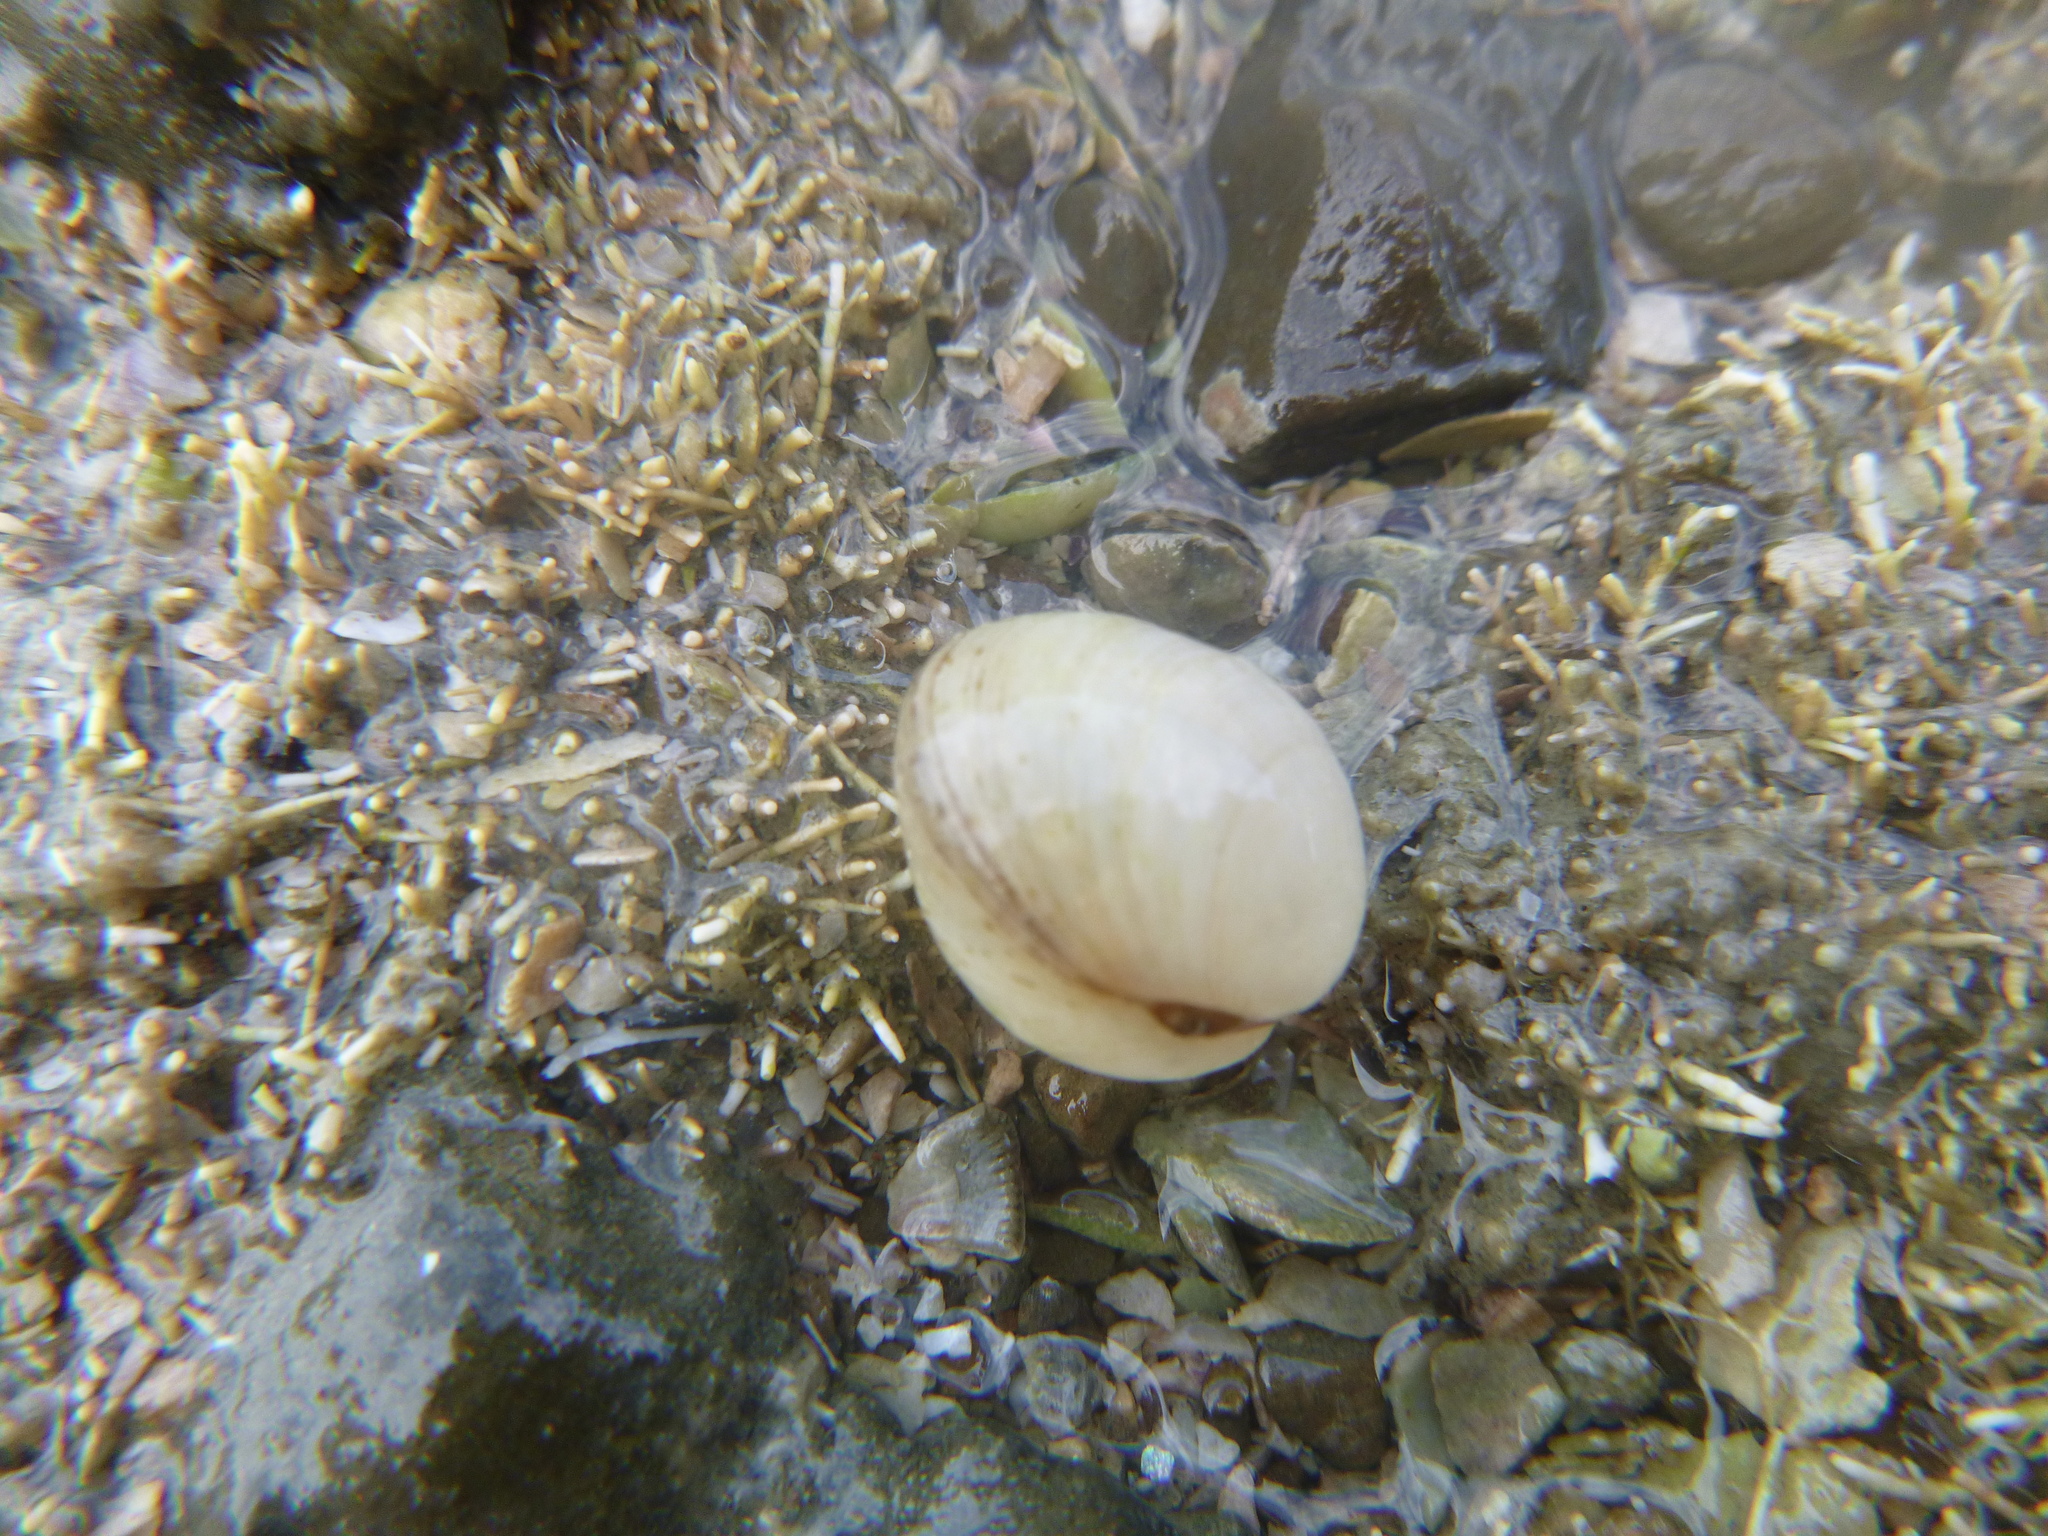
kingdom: Animalia
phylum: Mollusca
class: Bivalvia
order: Venerida
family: Ungulinidae
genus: Zemysina
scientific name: Zemysina striatula
